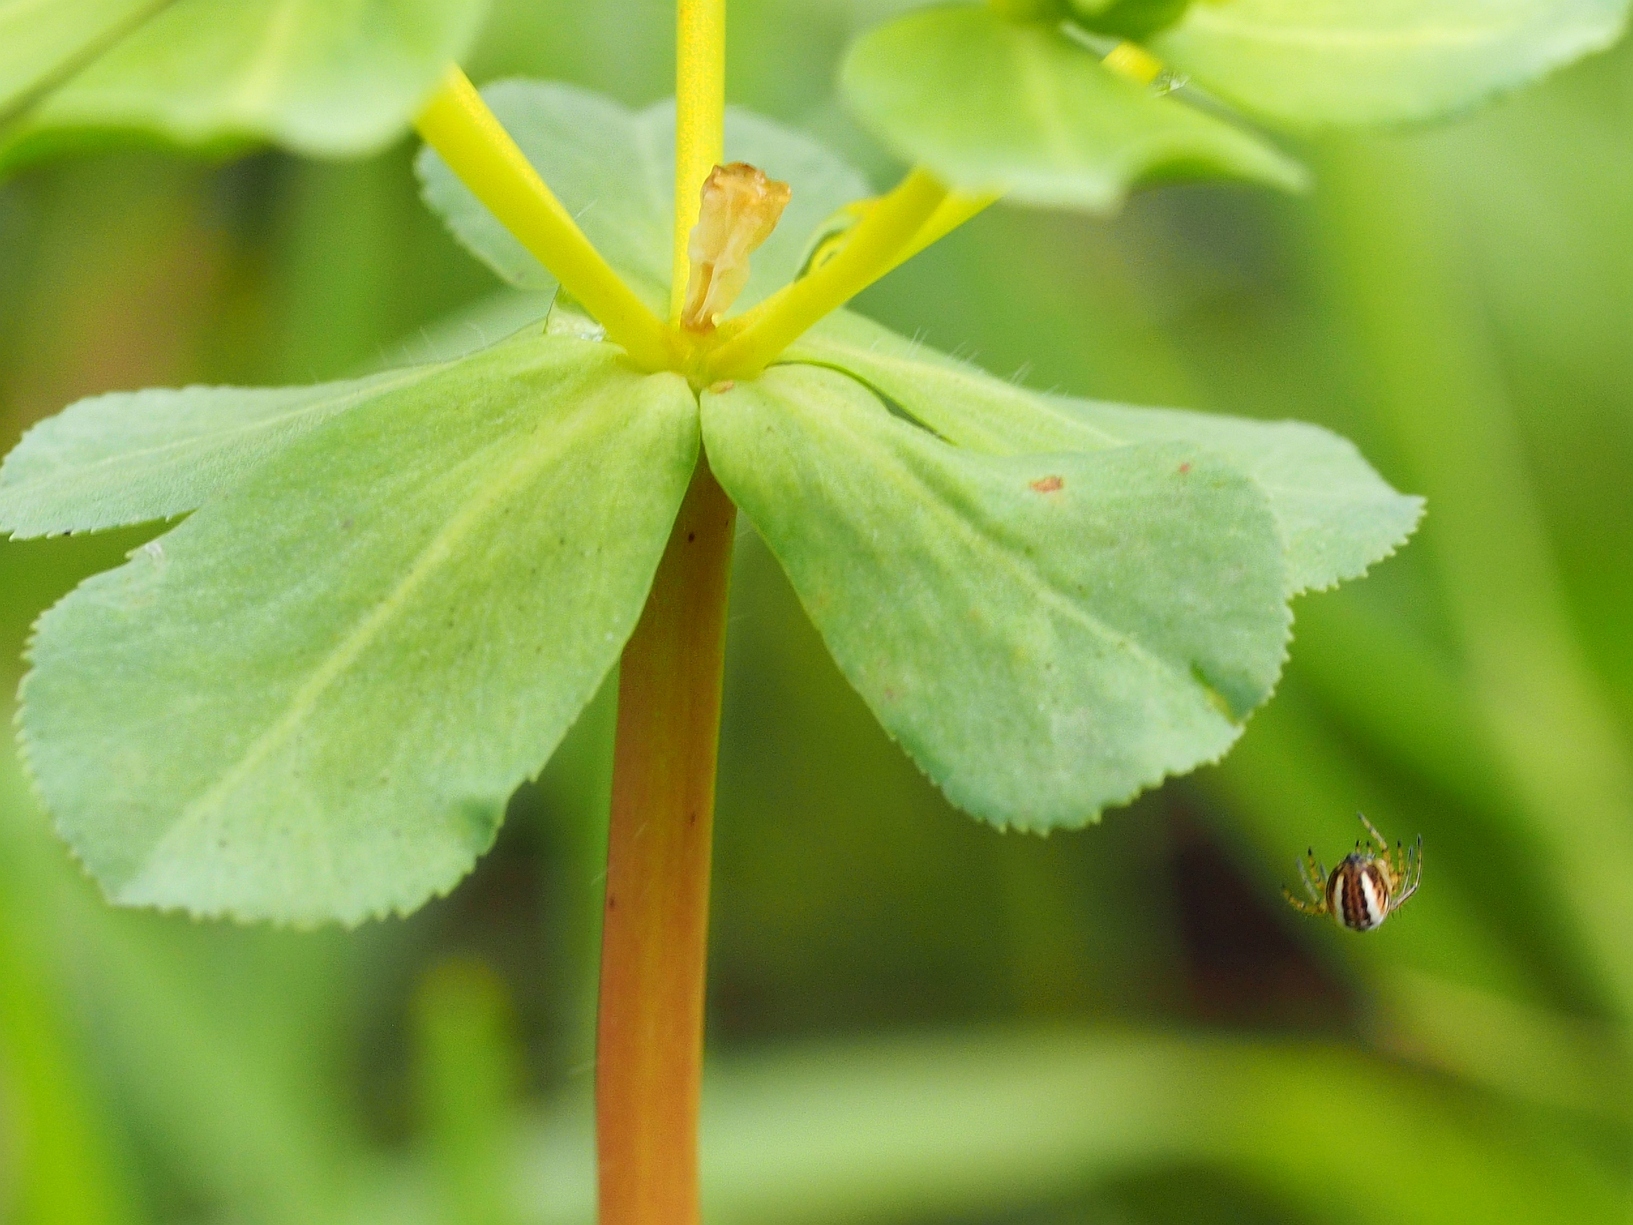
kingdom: Animalia
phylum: Arthropoda
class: Arachnida
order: Araneae
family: Araneidae
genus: Mangora
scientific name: Mangora acalypha
